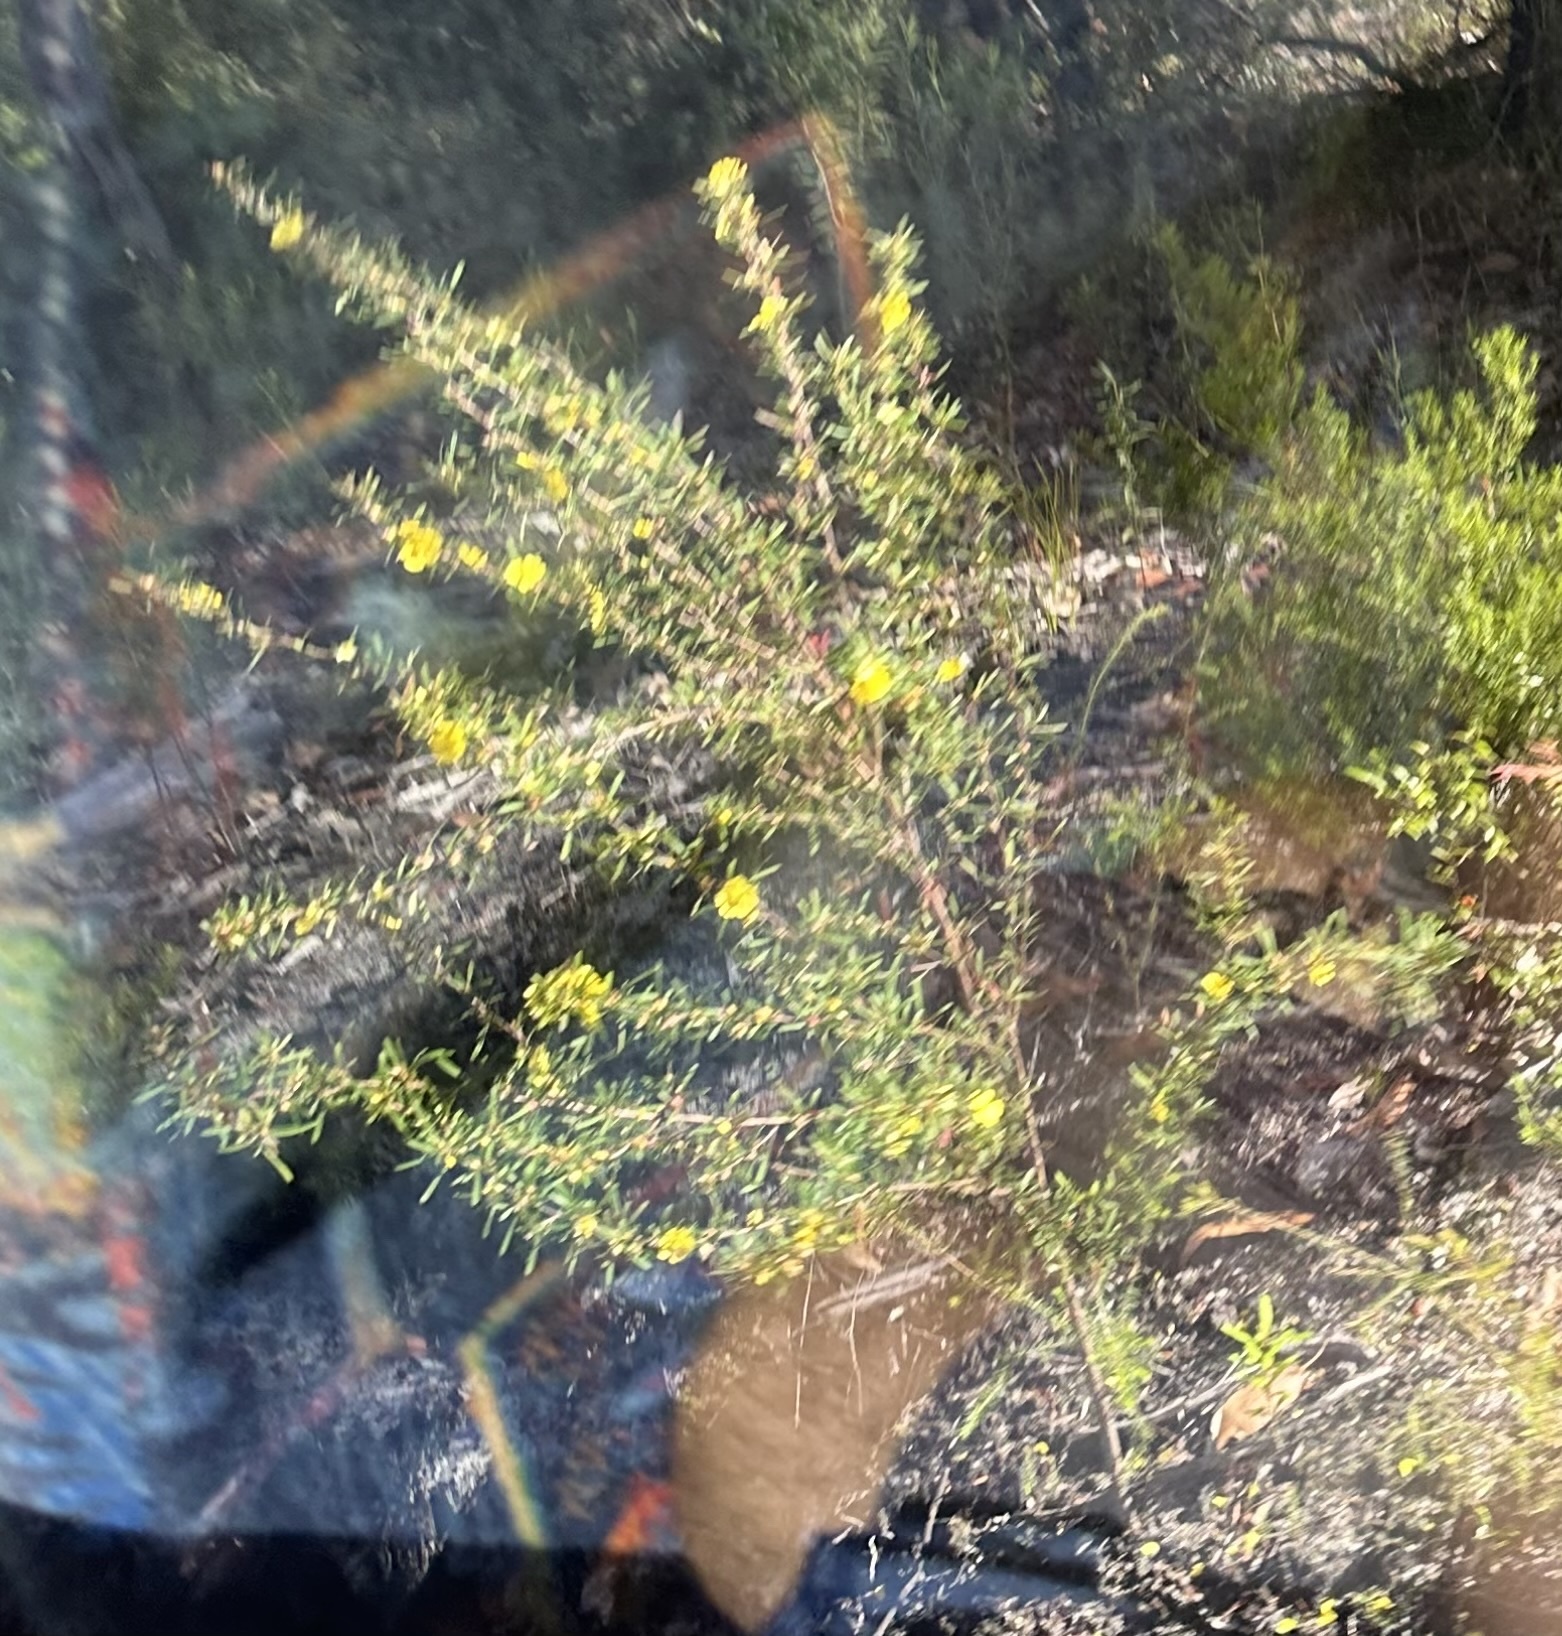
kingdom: Plantae
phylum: Tracheophyta
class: Magnoliopsida
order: Dilleniales
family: Dilleniaceae
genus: Hibbertia
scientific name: Hibbertia linearis
